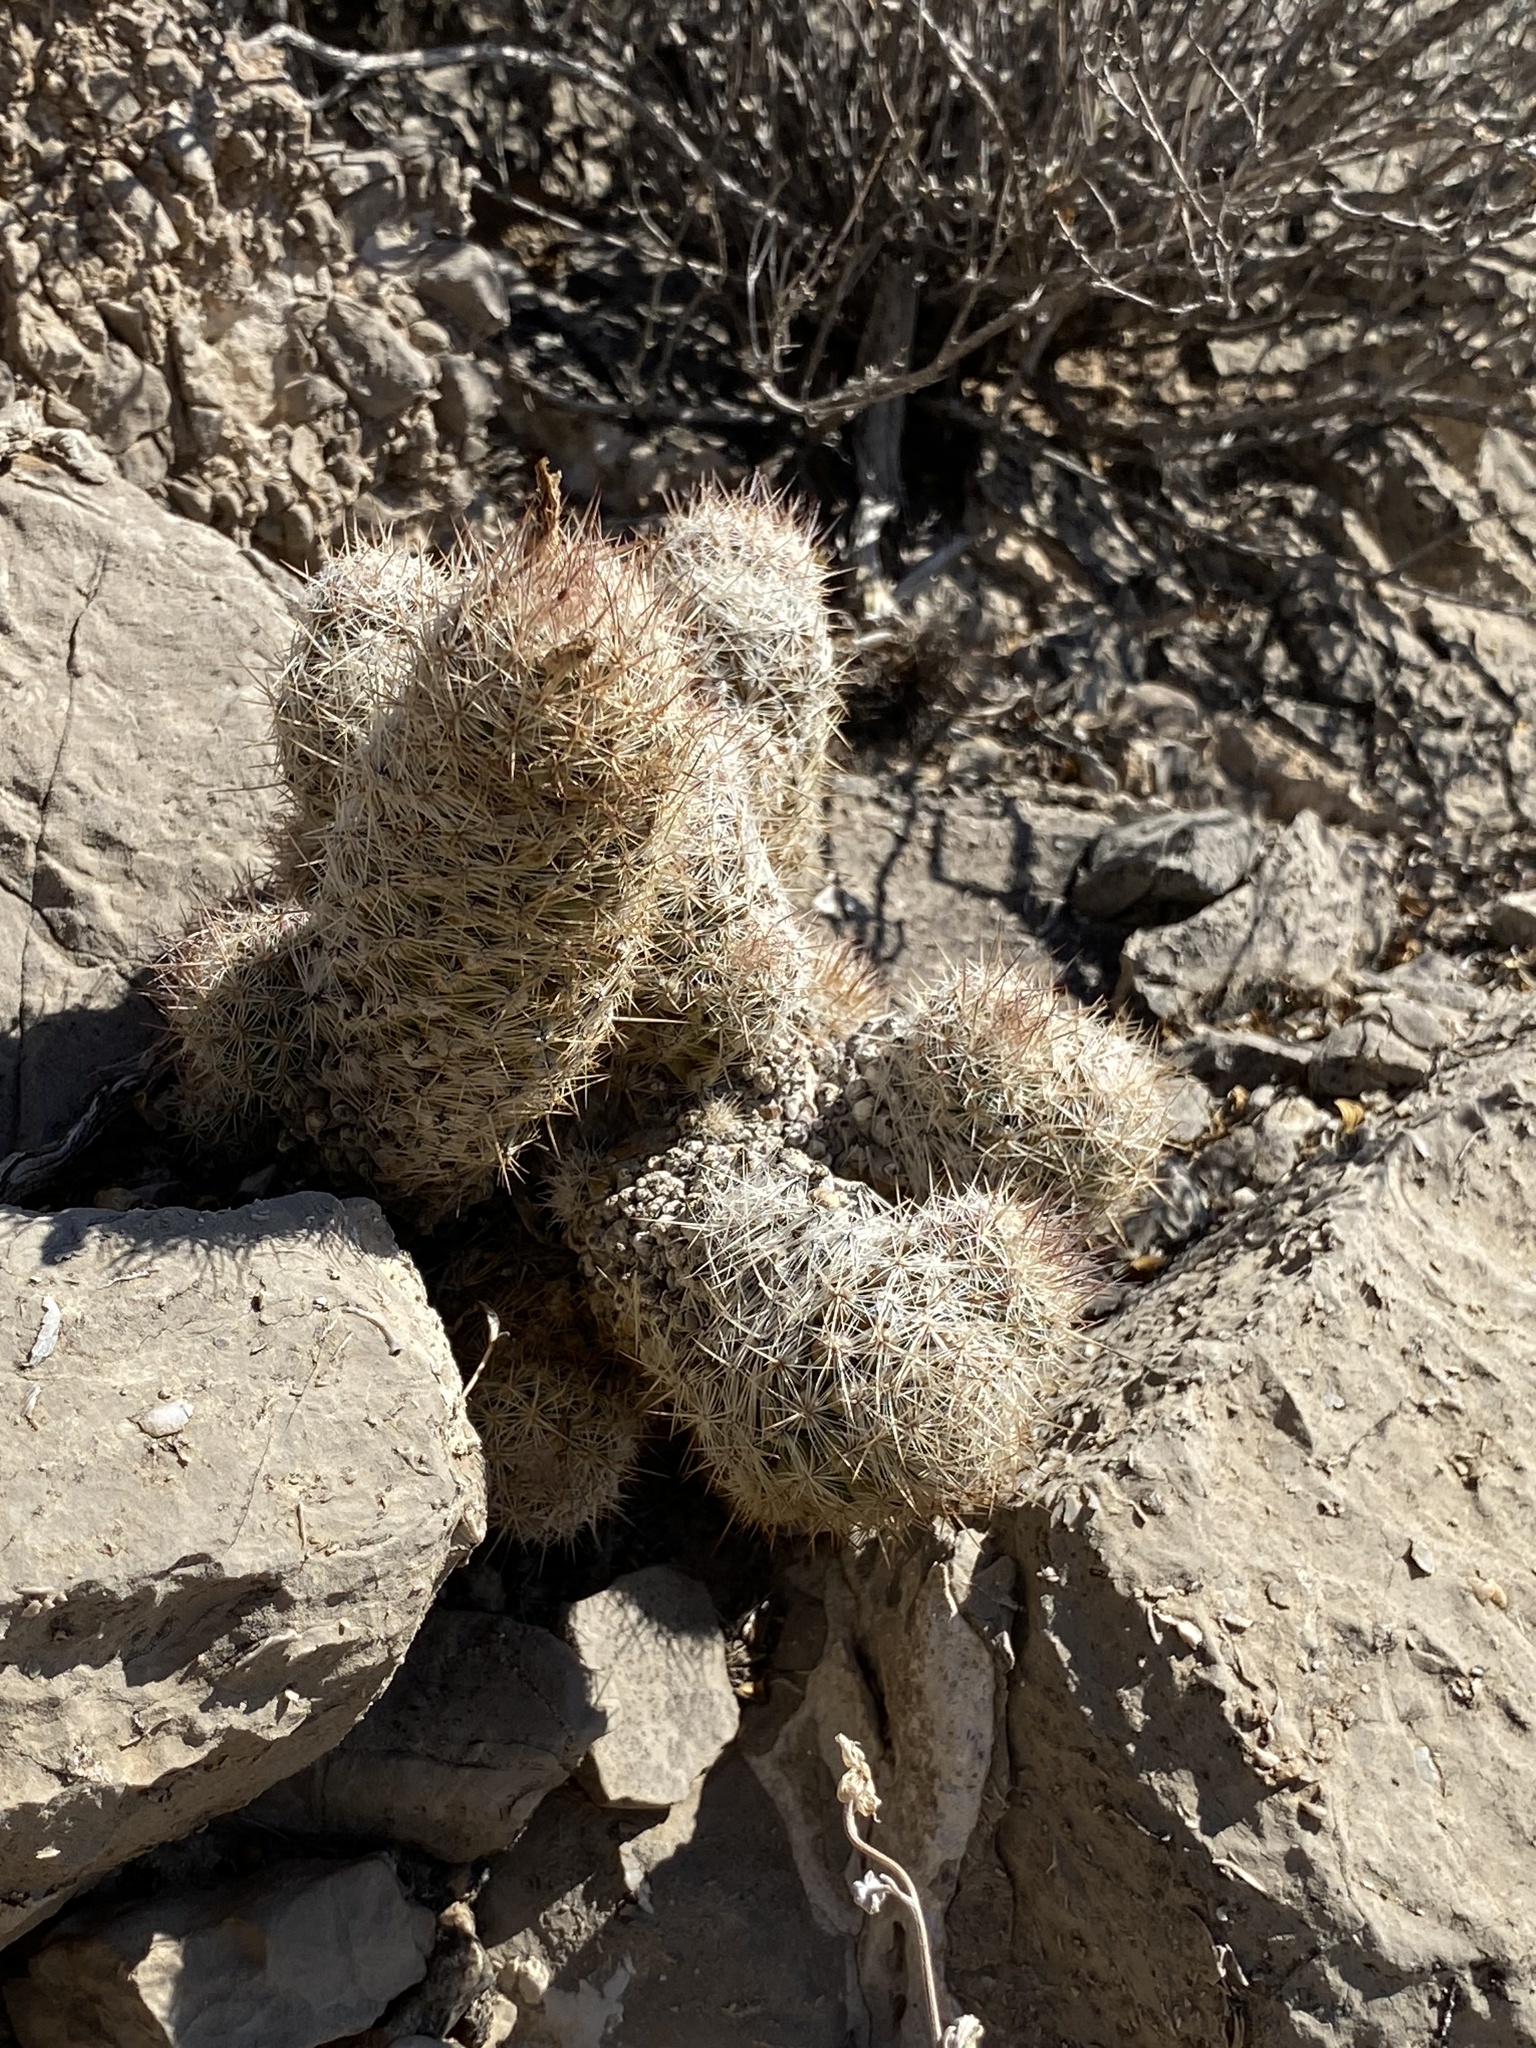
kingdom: Plantae
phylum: Tracheophyta
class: Magnoliopsida
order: Caryophyllales
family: Cactaceae
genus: Pelecyphora
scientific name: Pelecyphora tuberculosa
